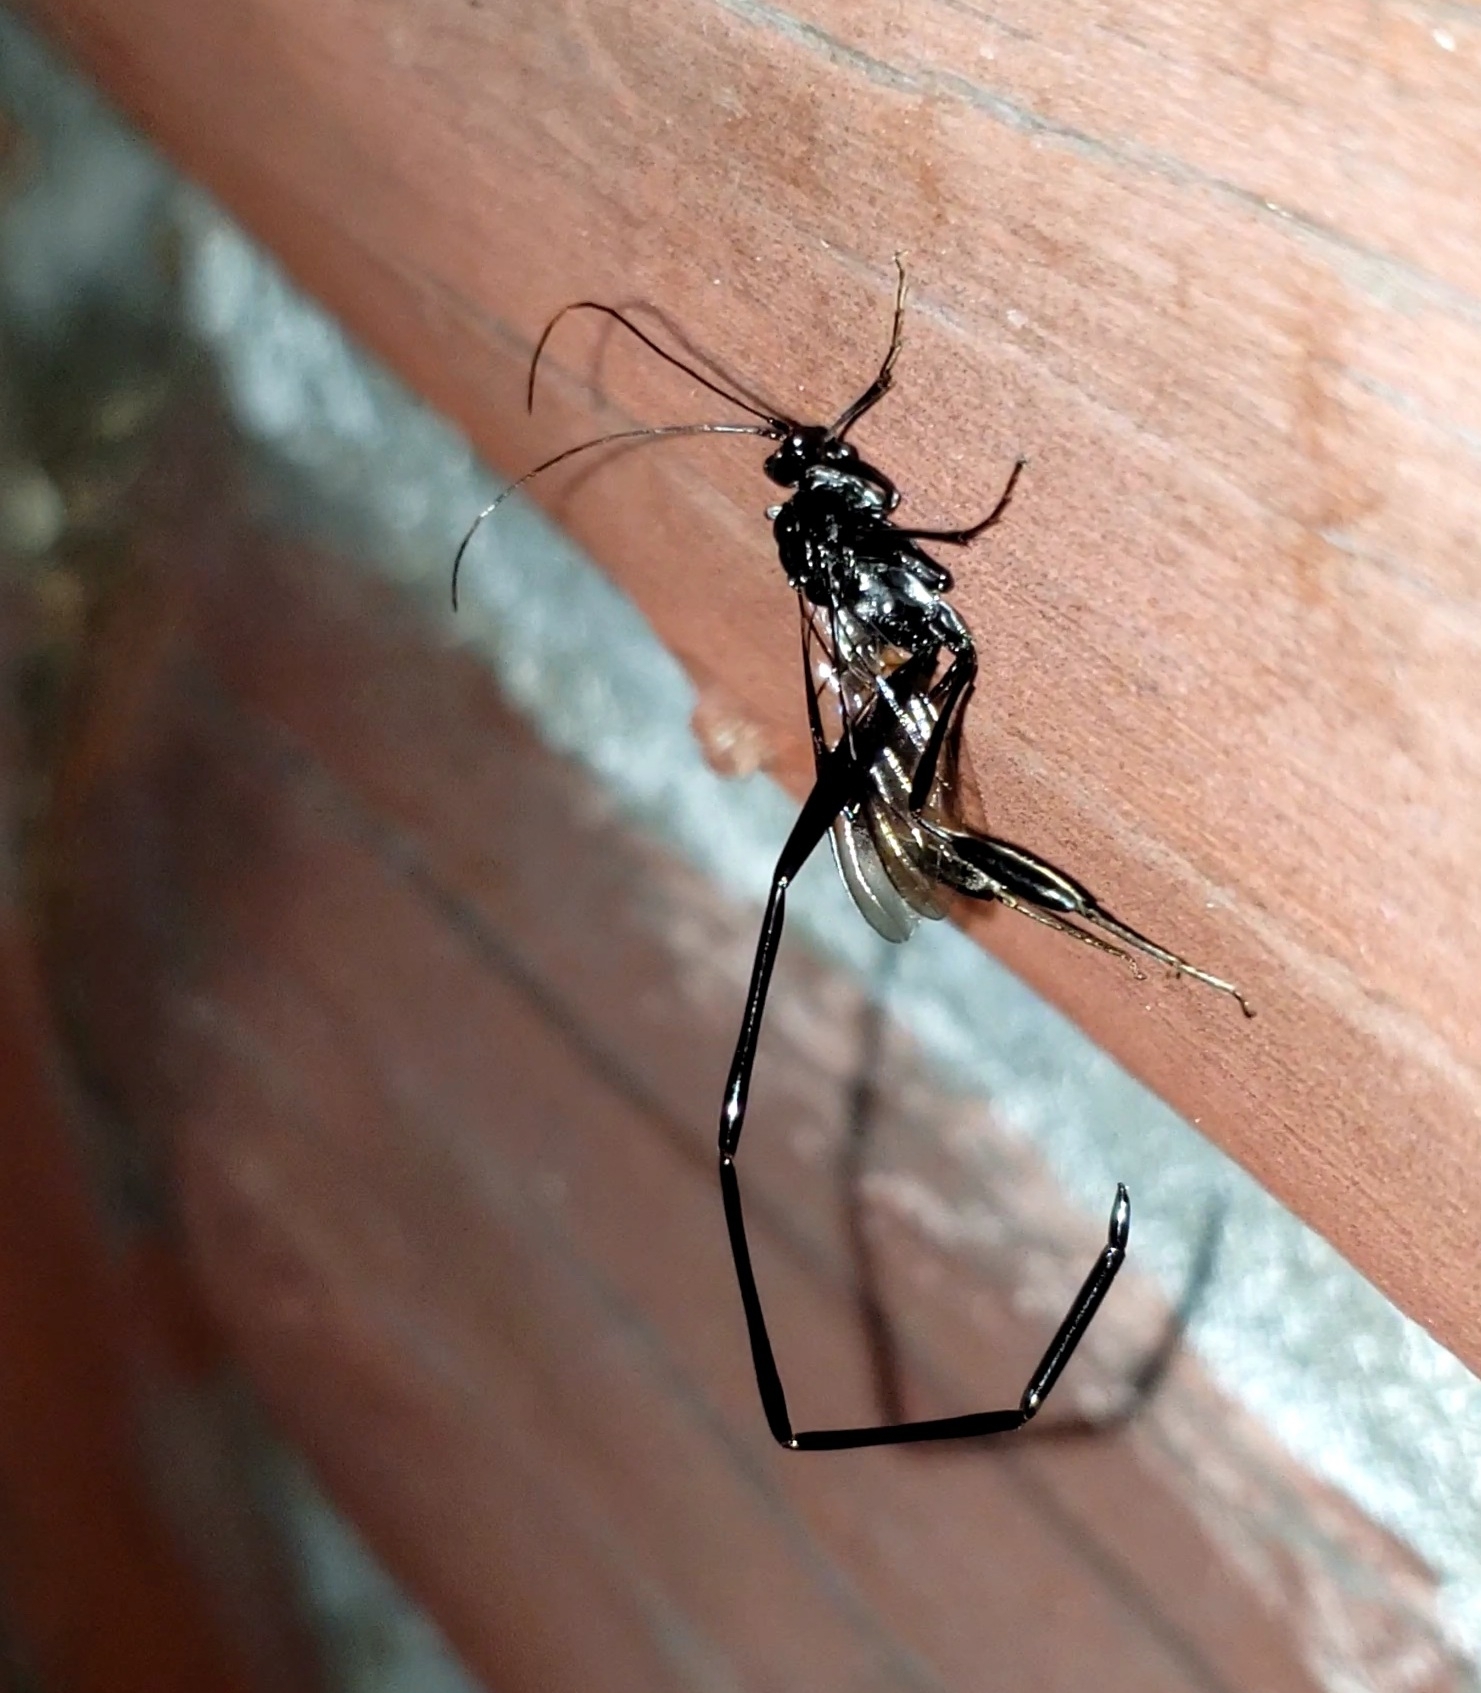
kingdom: Animalia
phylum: Arthropoda
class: Insecta
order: Hymenoptera
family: Pelecinidae
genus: Pelecinus
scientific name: Pelecinus polyturator
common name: American pelecinid wasp
